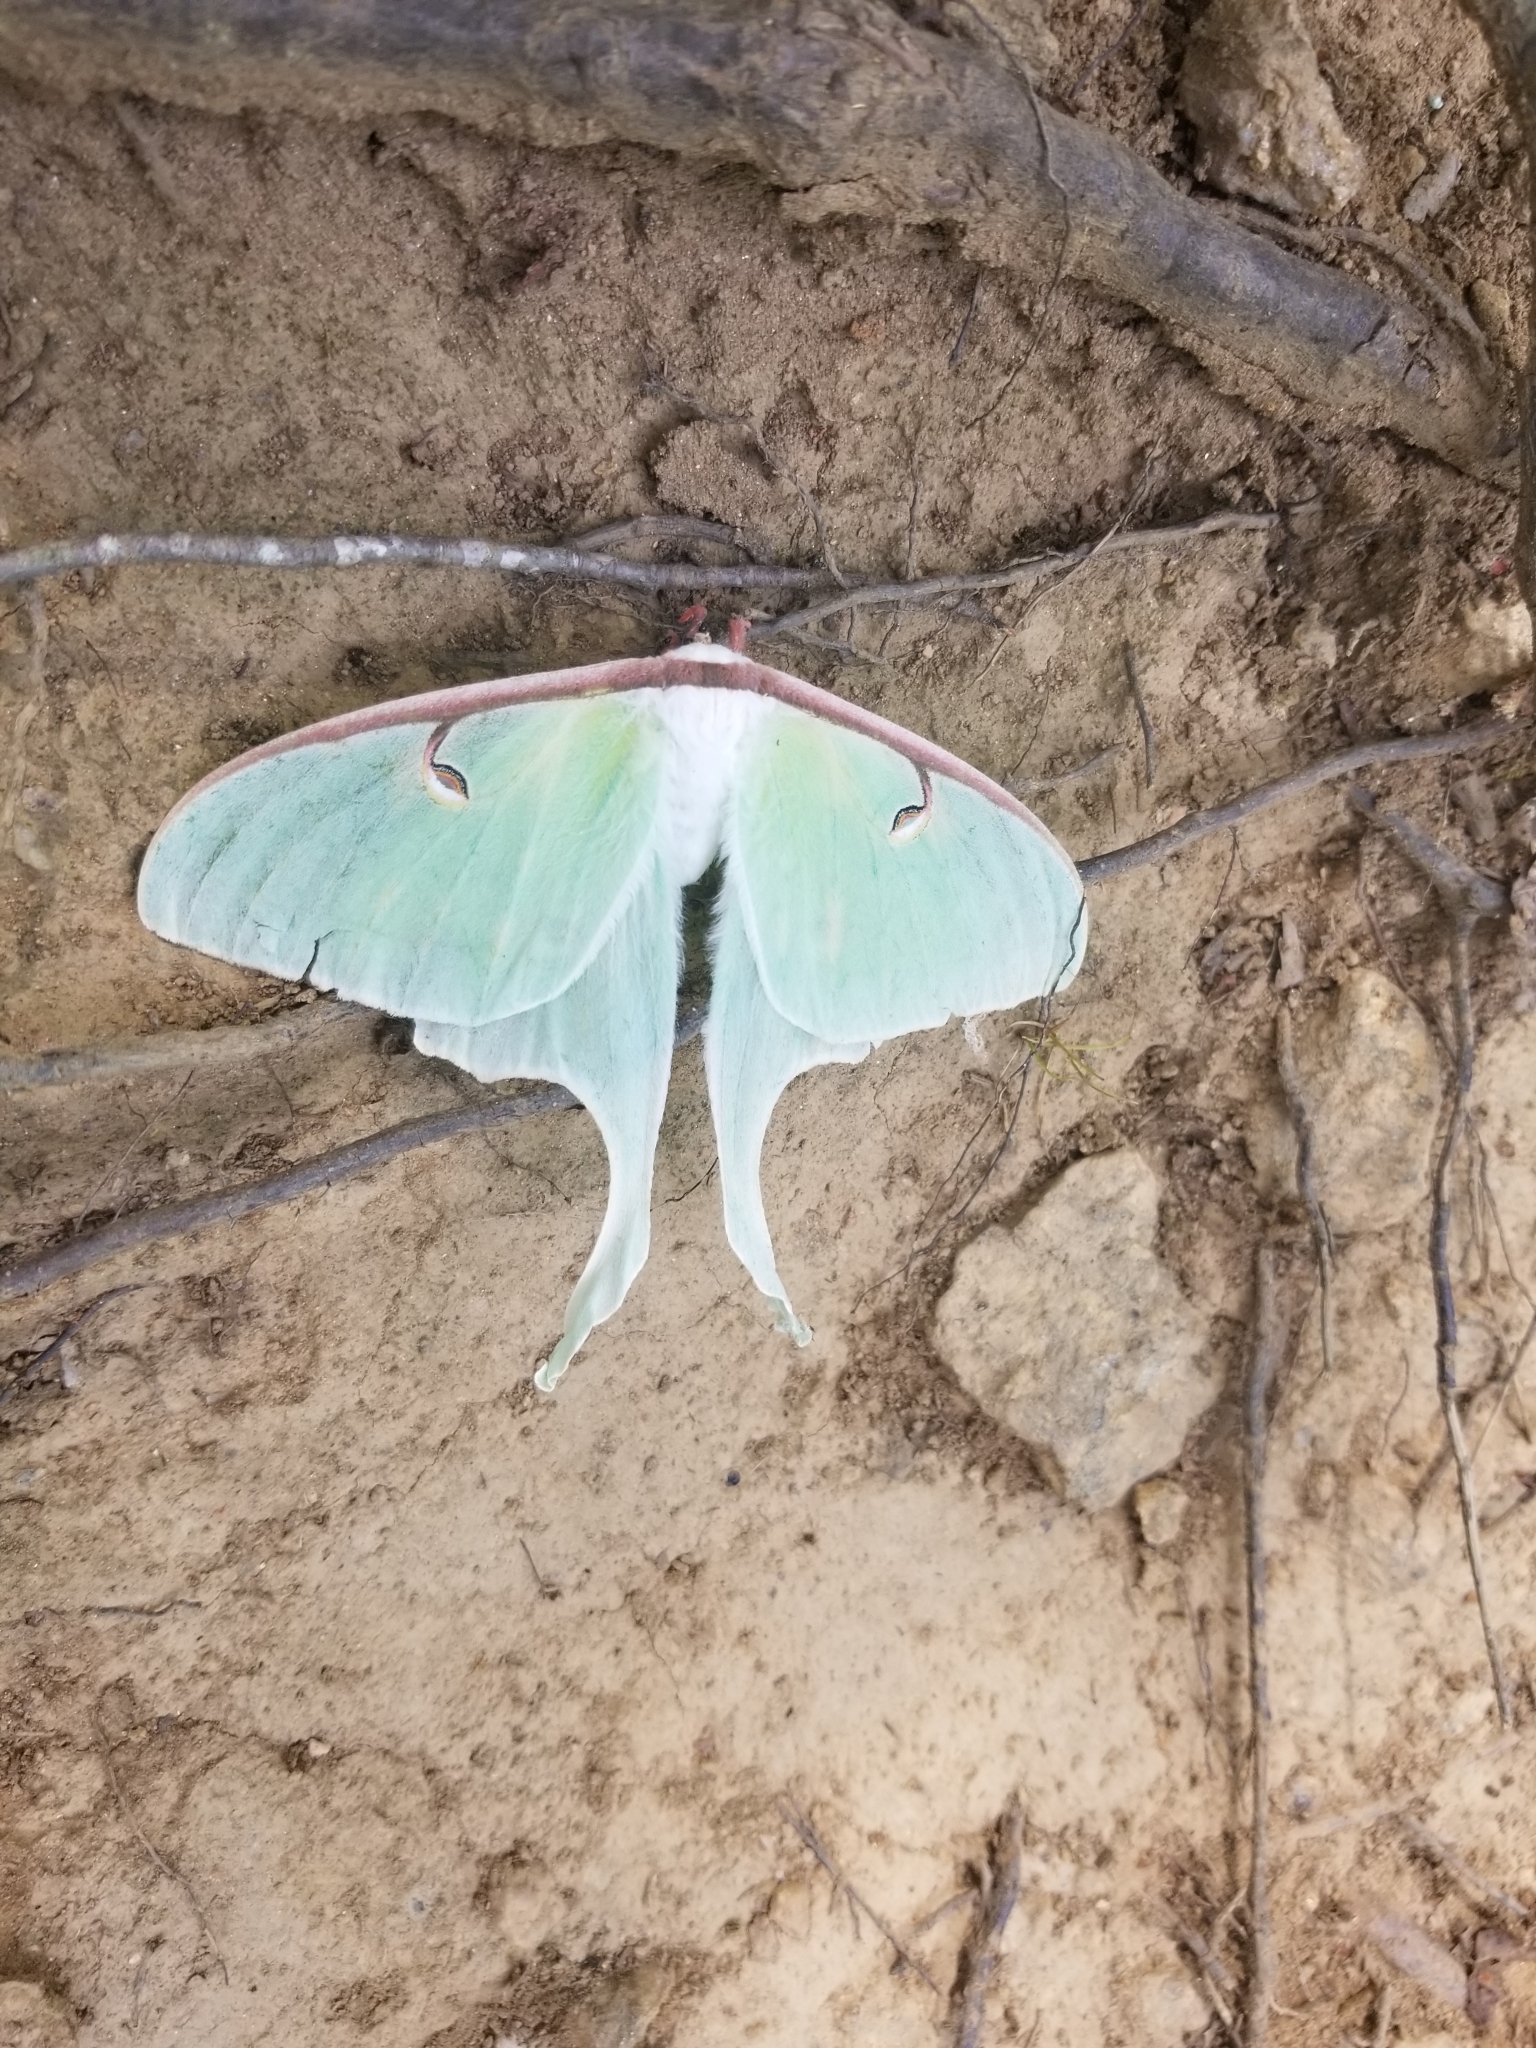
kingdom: Animalia
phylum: Arthropoda
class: Insecta
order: Lepidoptera
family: Saturniidae
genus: Actias
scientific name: Actias luna
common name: Luna moth
